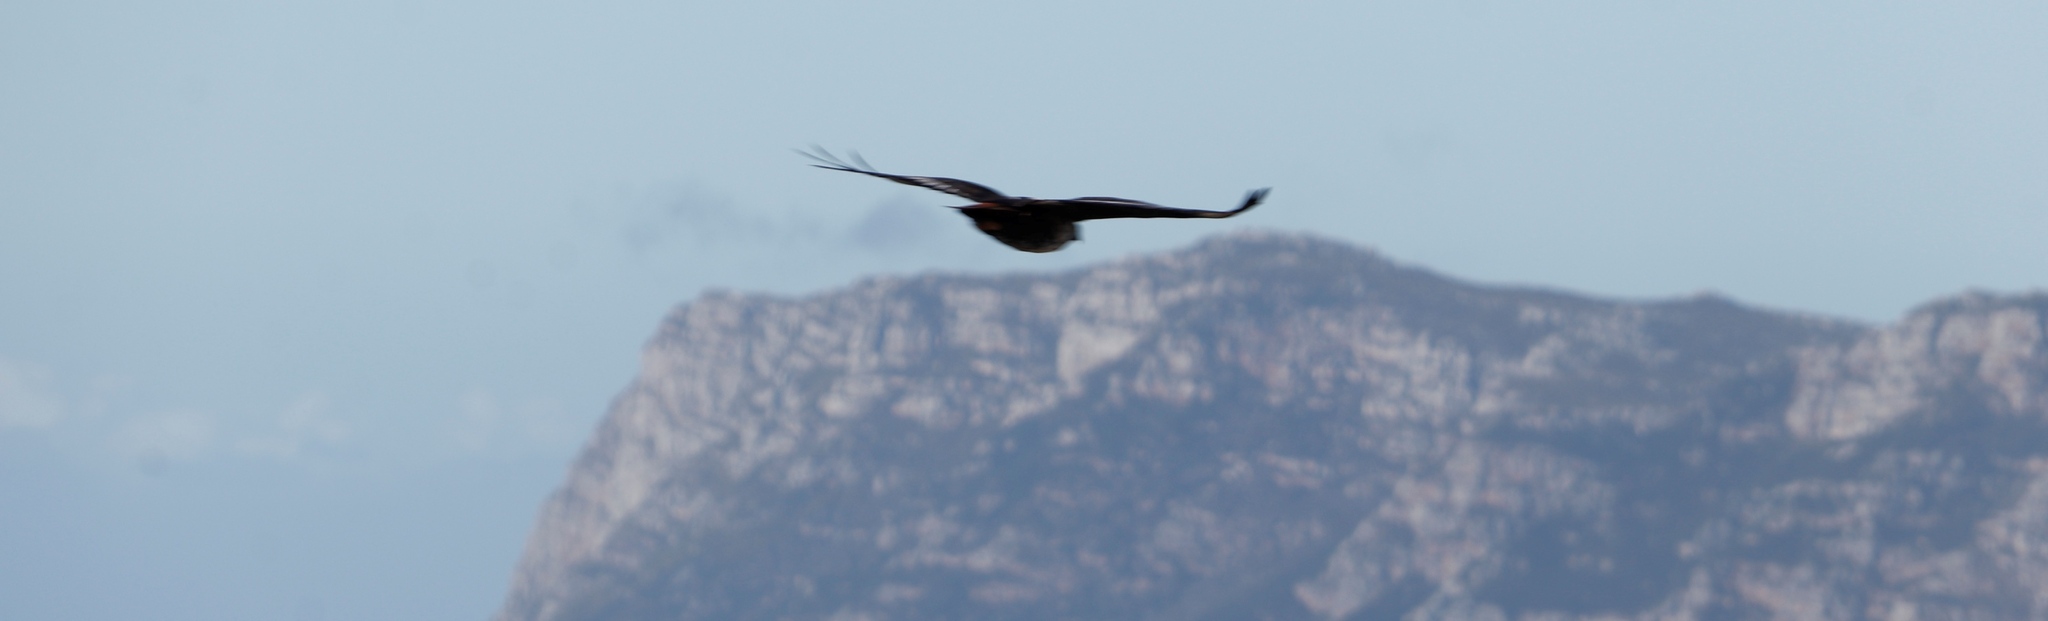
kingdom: Animalia
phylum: Chordata
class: Aves
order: Accipitriformes
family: Accipitridae
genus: Buteo
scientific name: Buteo rufofuscus
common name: Jackal buzzard
